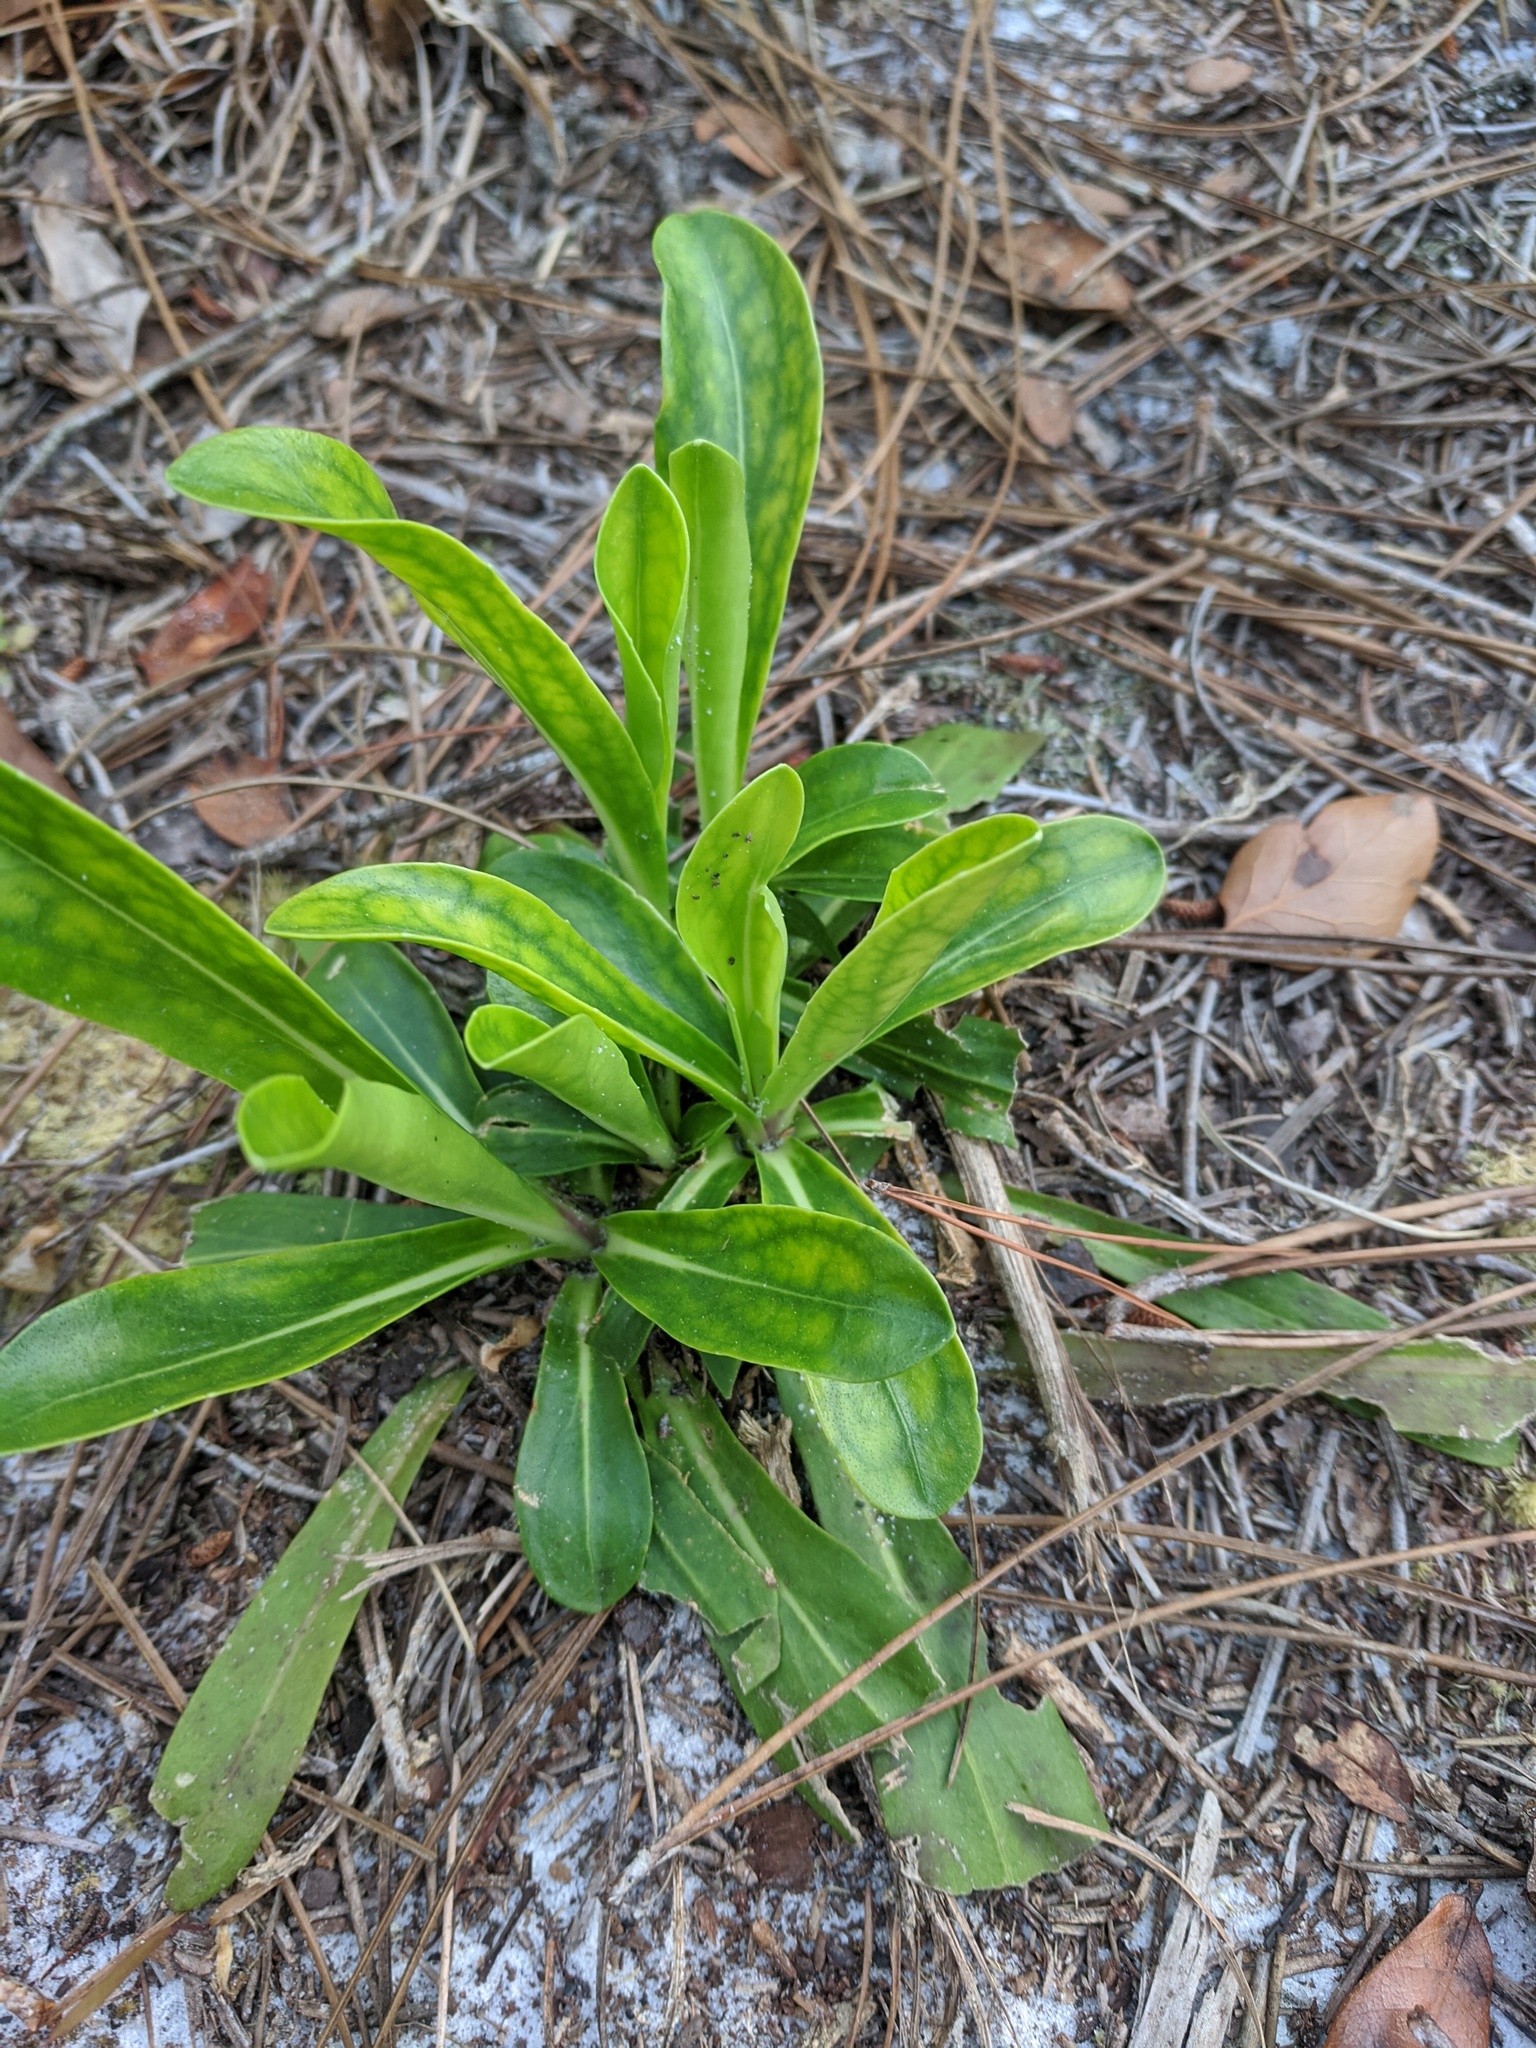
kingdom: Plantae
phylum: Tracheophyta
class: Magnoliopsida
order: Asterales
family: Asteraceae
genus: Carphephorus
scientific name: Carphephorus corymbosus
